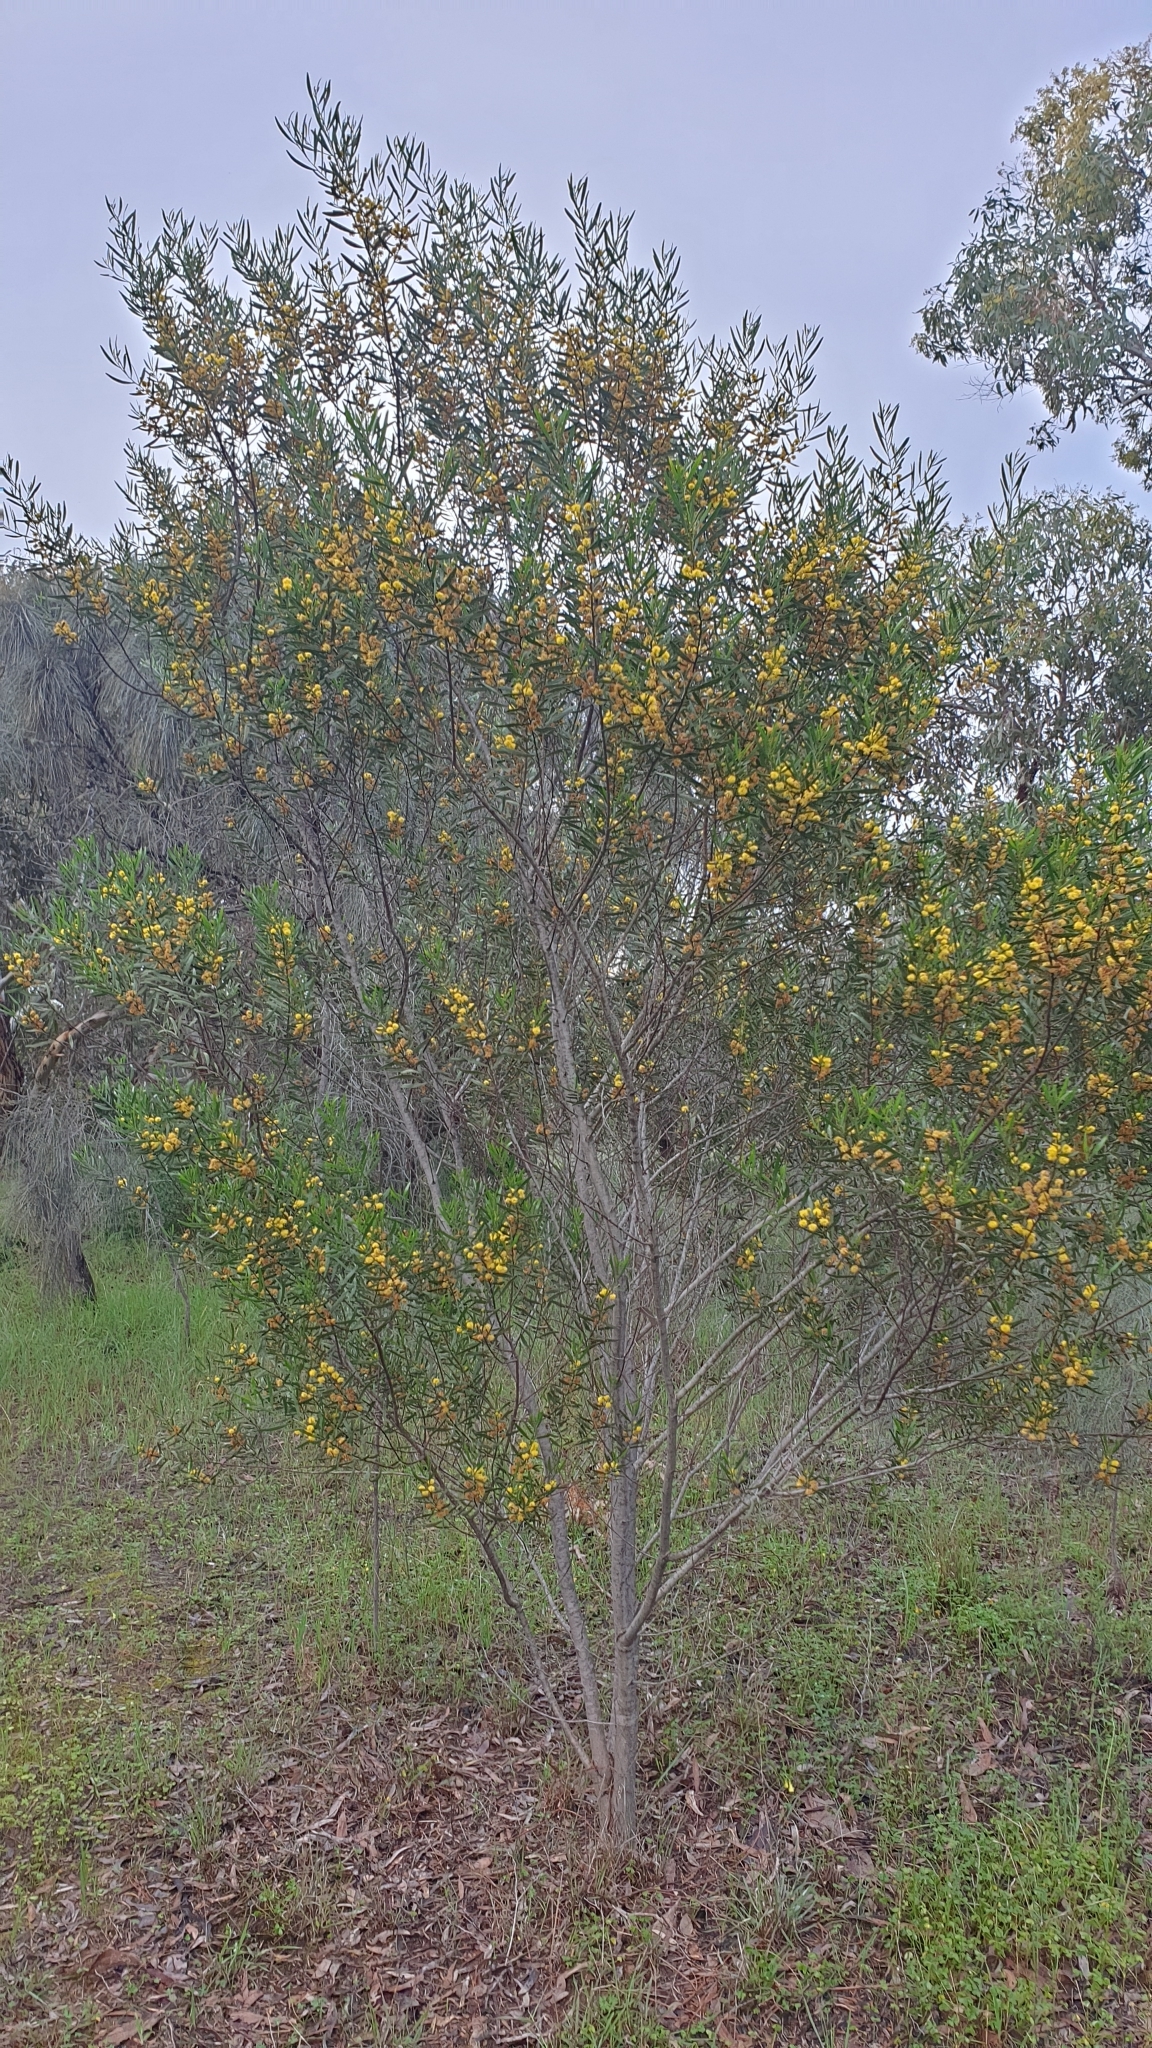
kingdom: Plantae
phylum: Tracheophyta
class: Magnoliopsida
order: Fabales
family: Fabaceae
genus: Acacia
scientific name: Acacia dodonaeifolia
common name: Sticky wattle
